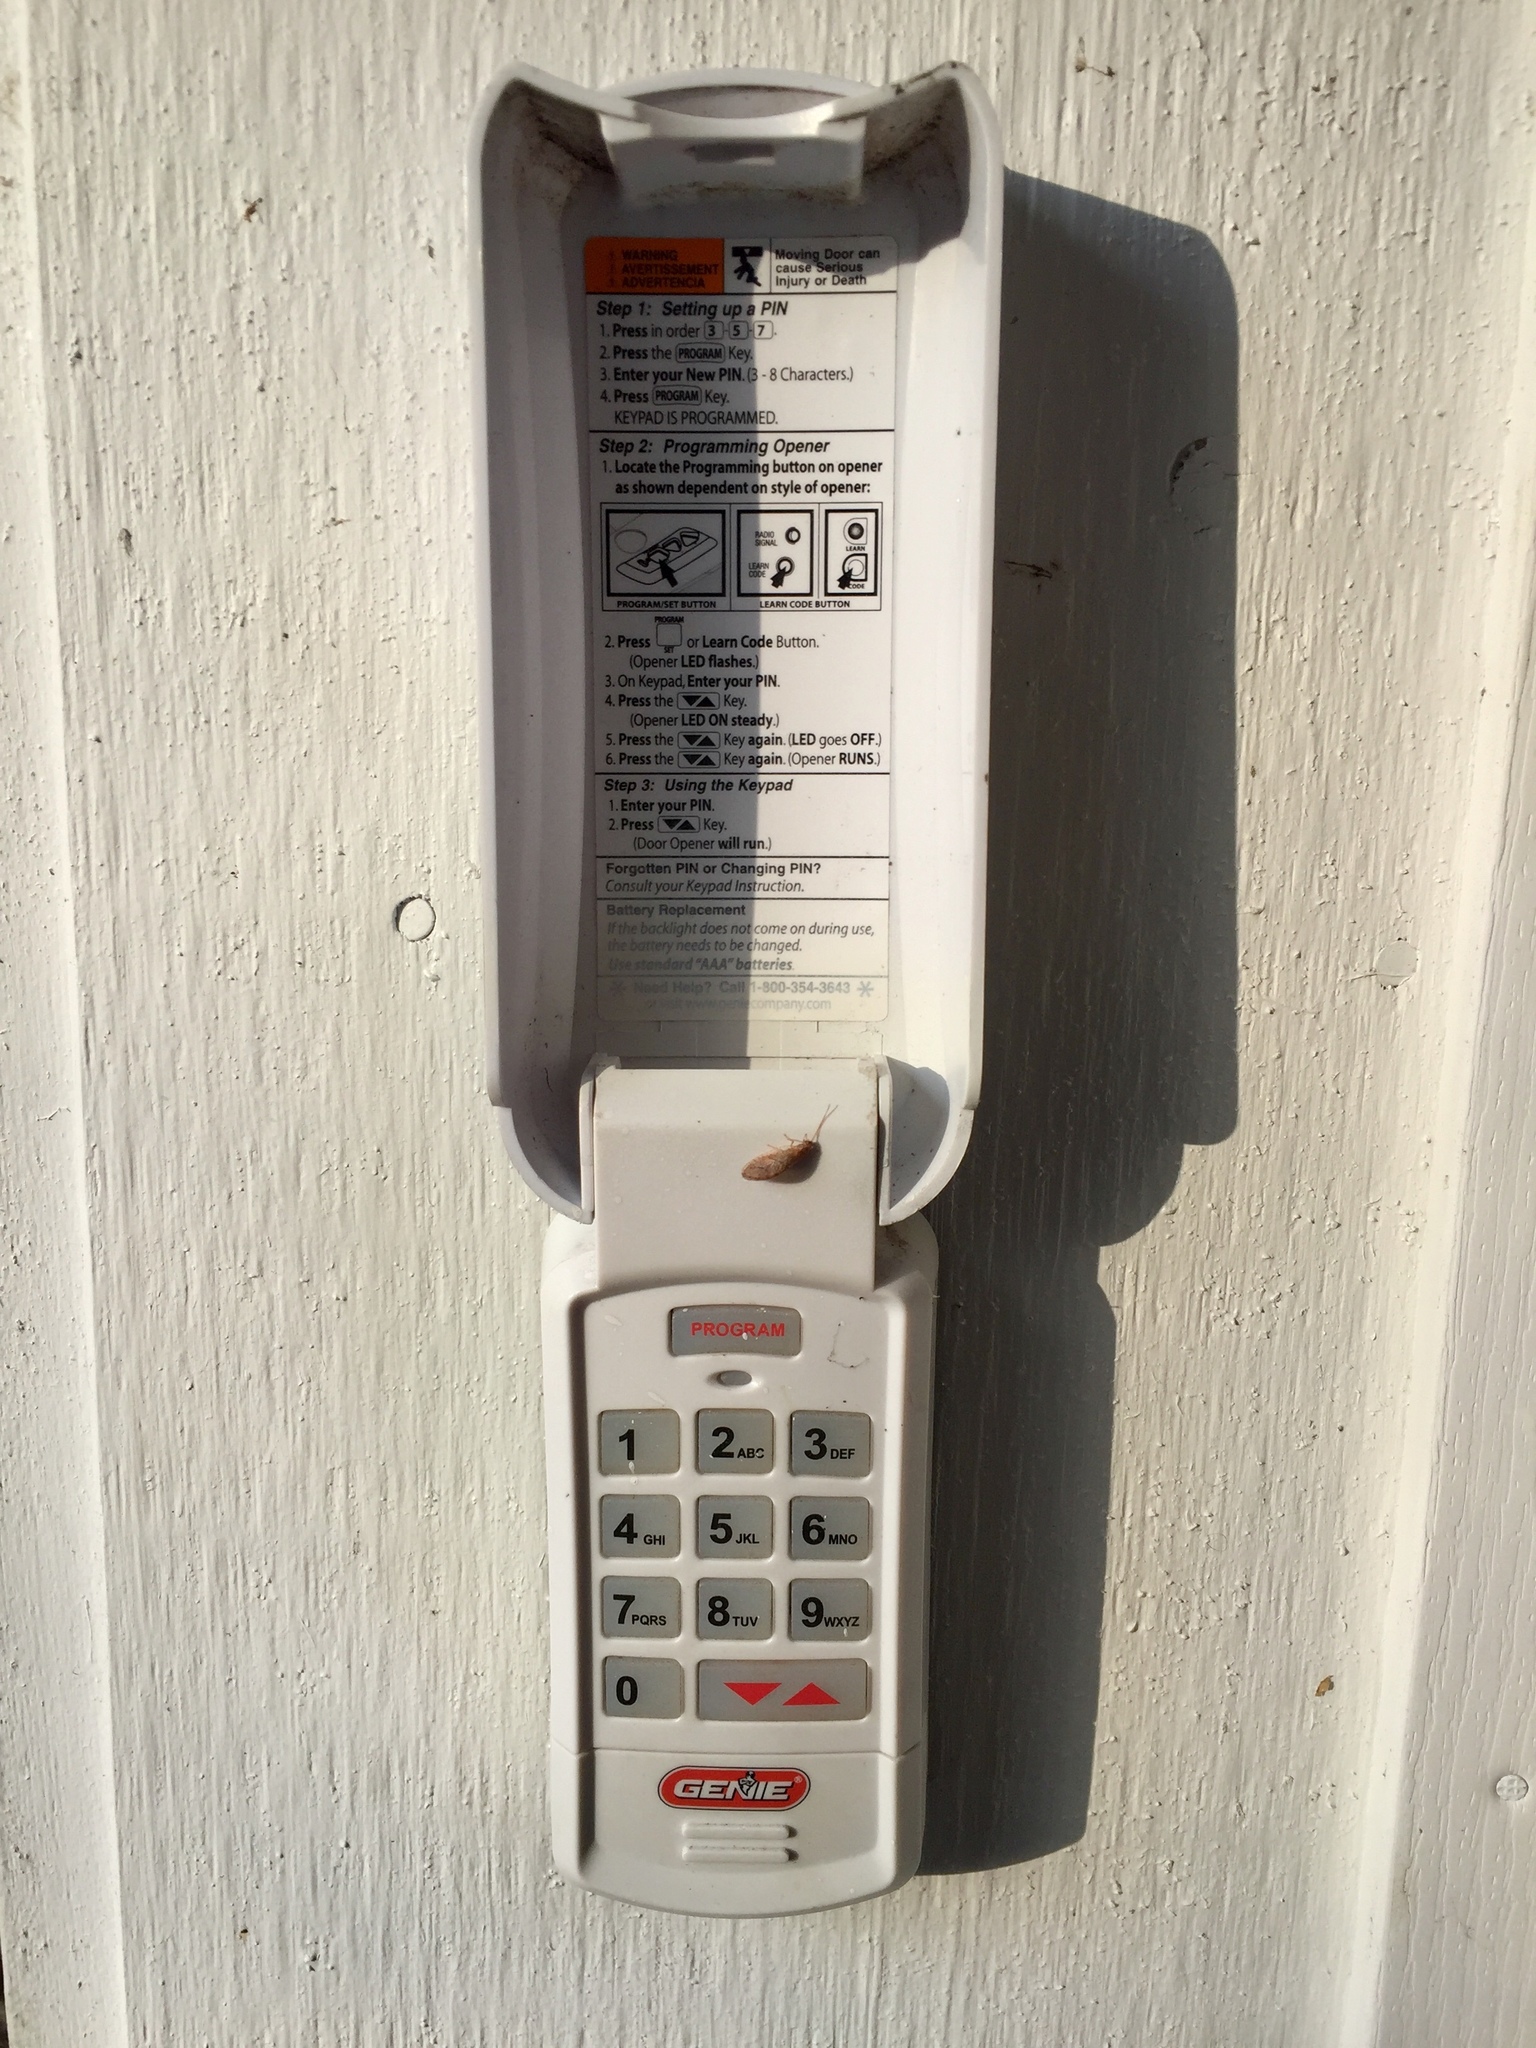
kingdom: Animalia
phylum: Arthropoda
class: Insecta
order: Neuroptera
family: Hemerobiidae
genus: Micromus
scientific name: Micromus posticus
